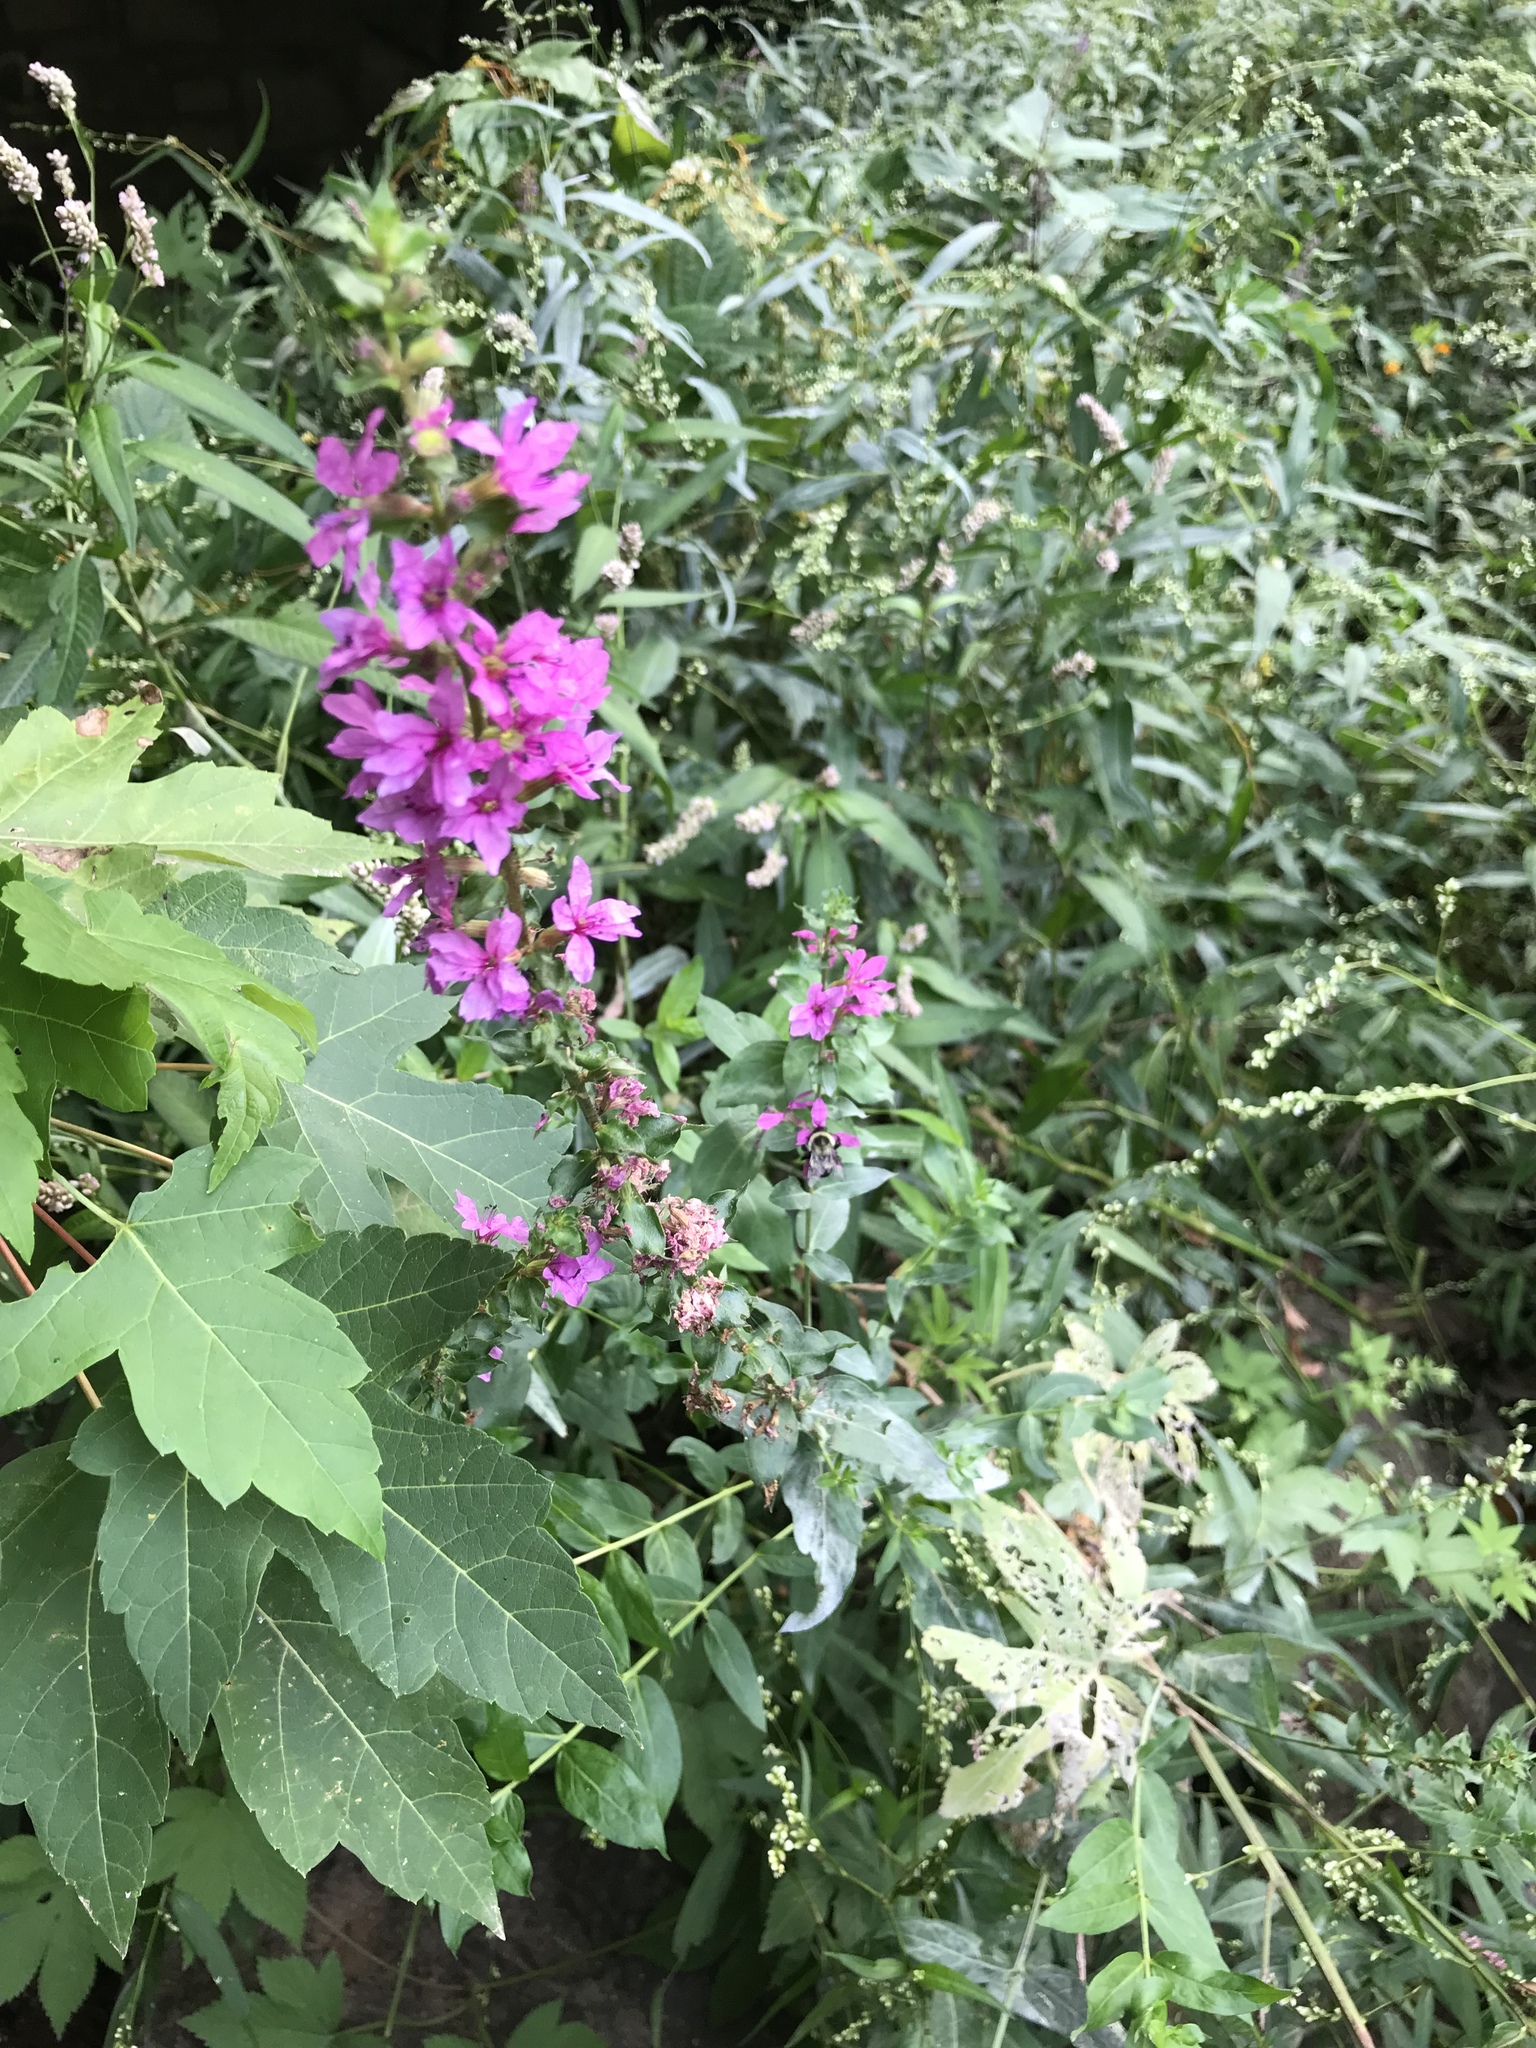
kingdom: Plantae
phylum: Tracheophyta
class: Magnoliopsida
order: Myrtales
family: Lythraceae
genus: Lythrum
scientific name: Lythrum salicaria
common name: Purple loosestrife
